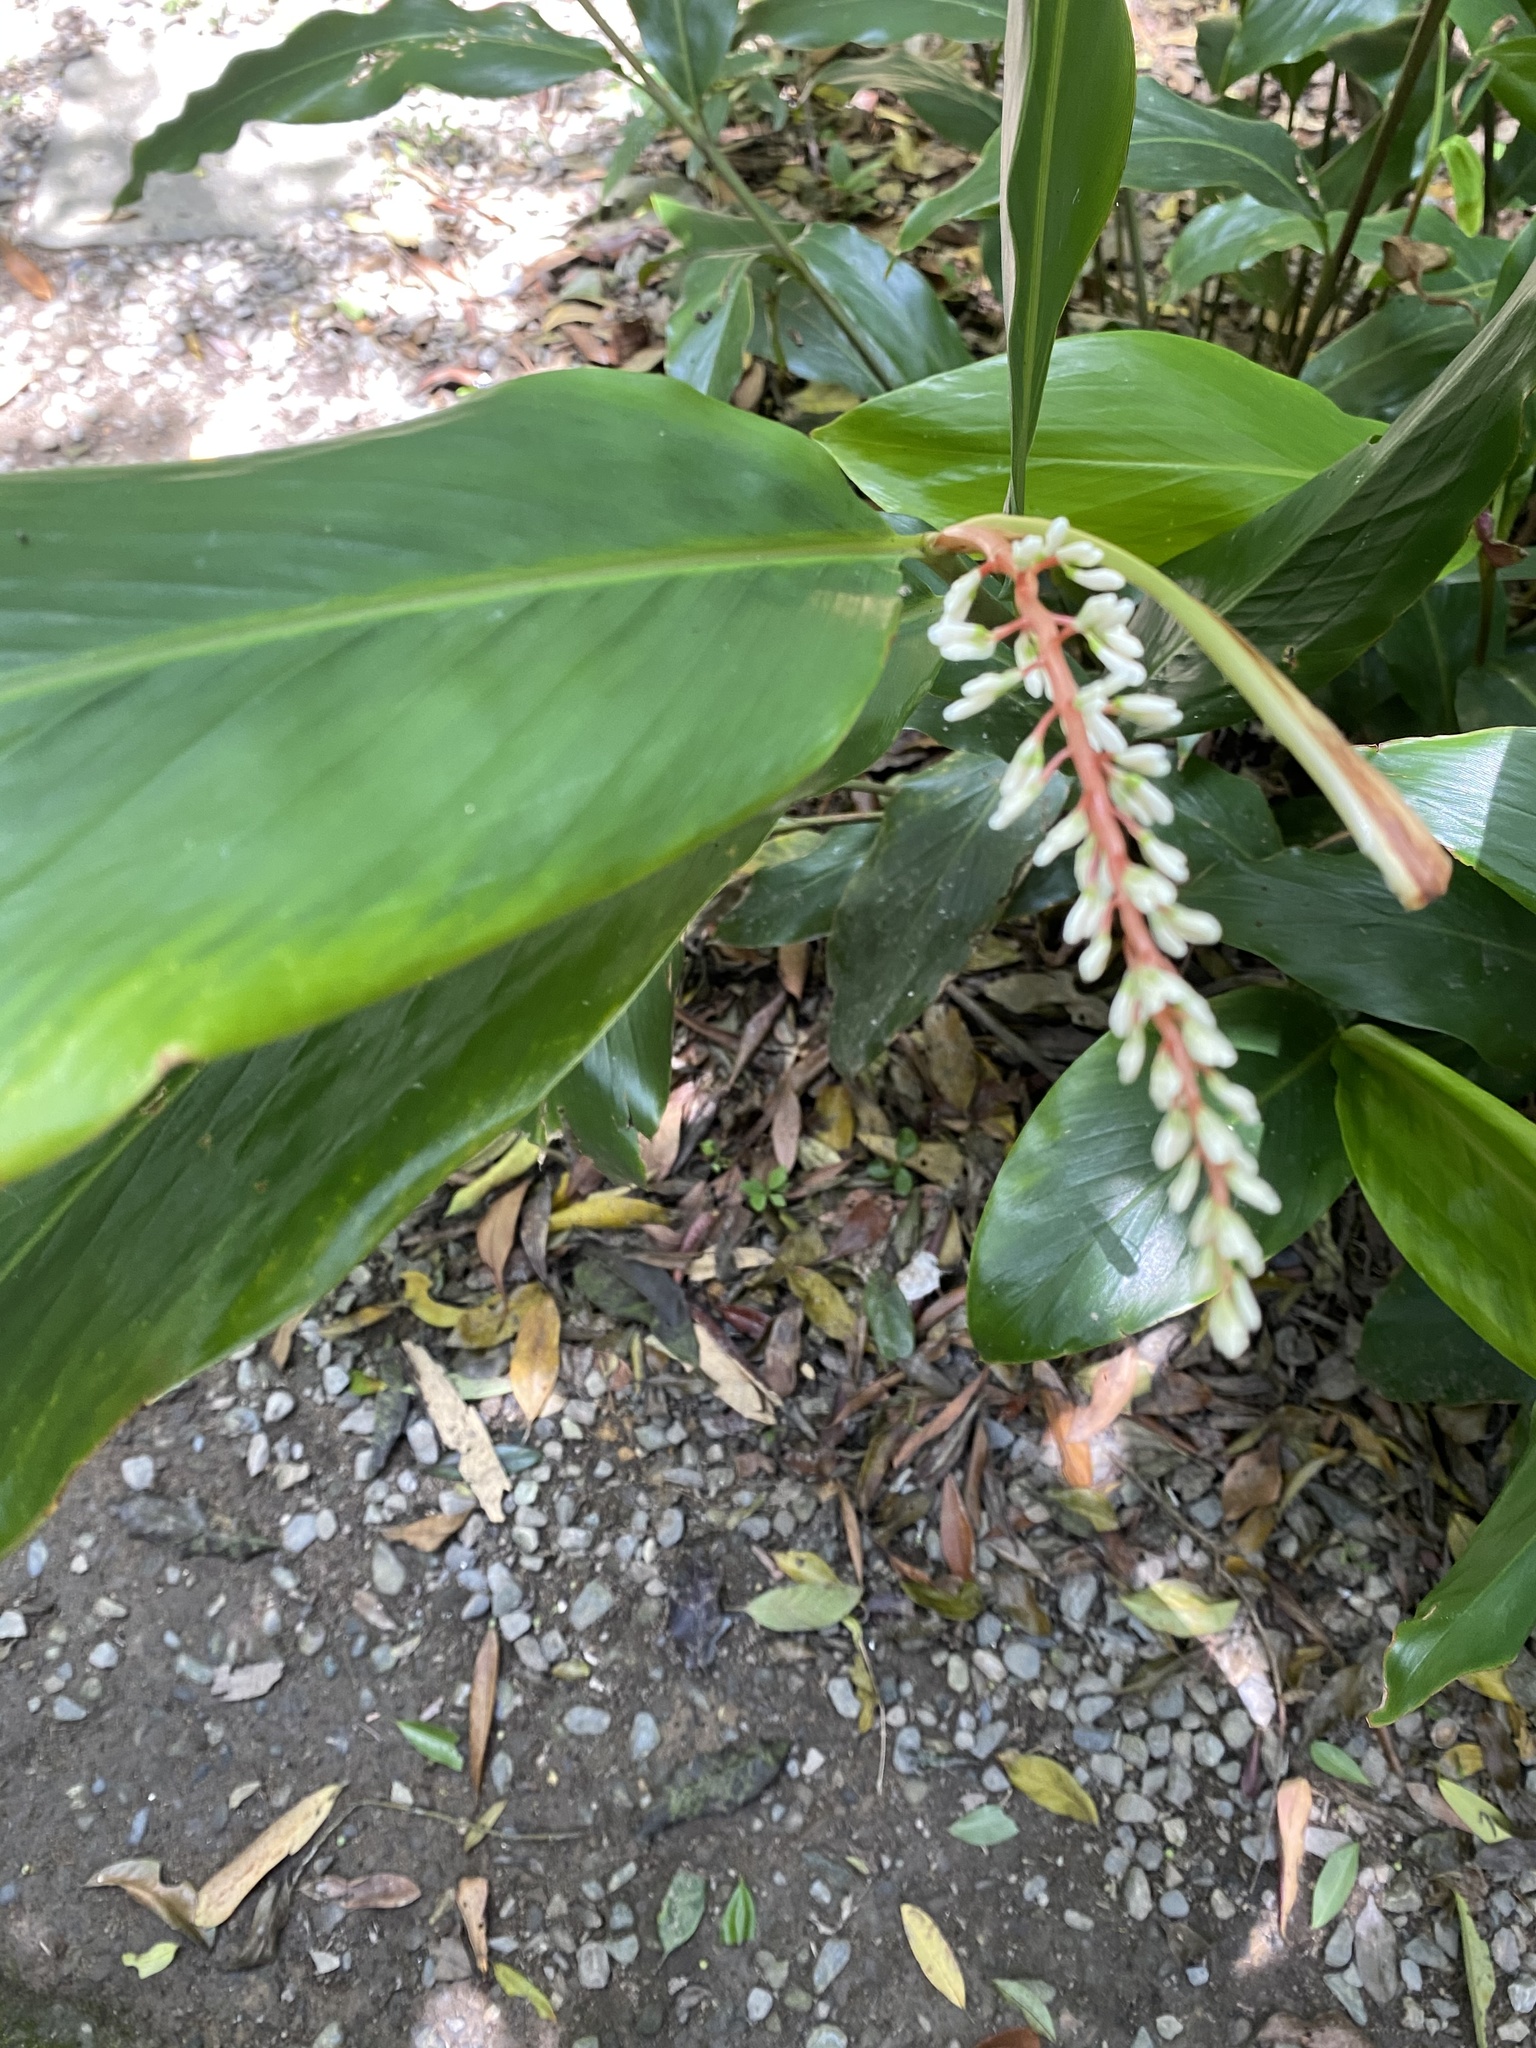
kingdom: Plantae
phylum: Tracheophyta
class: Liliopsida
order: Zingiberales
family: Zingiberaceae
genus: Alpinia
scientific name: Alpinia intermedia
